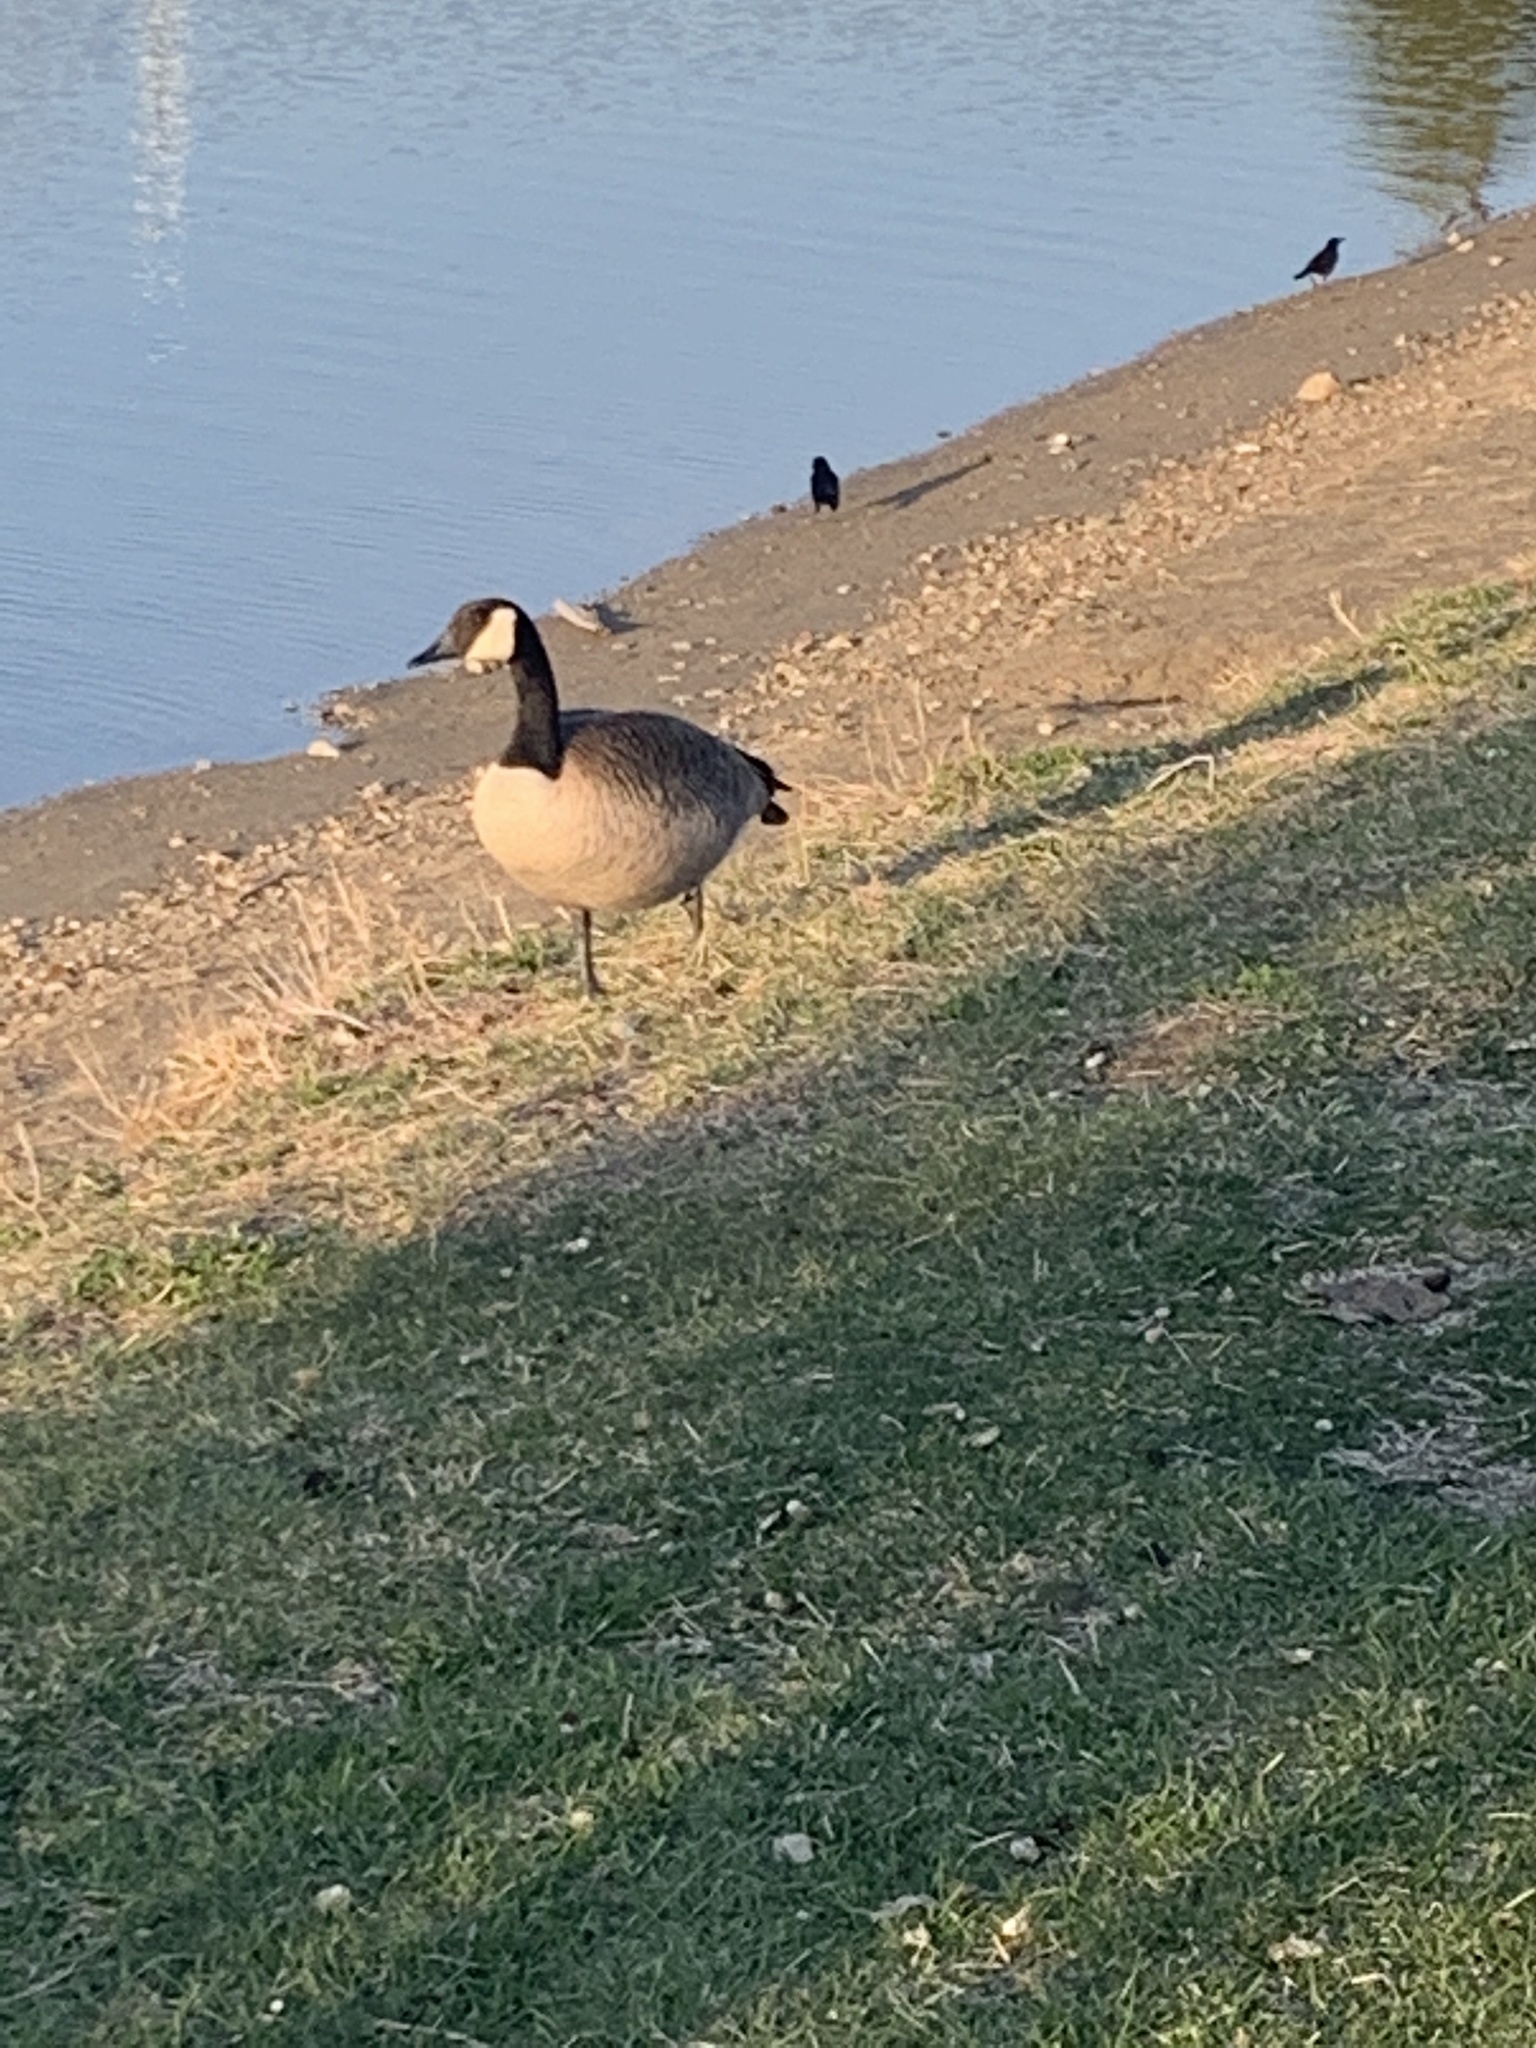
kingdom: Animalia
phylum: Chordata
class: Aves
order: Anseriformes
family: Anatidae
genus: Branta
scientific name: Branta canadensis
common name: Canada goose
